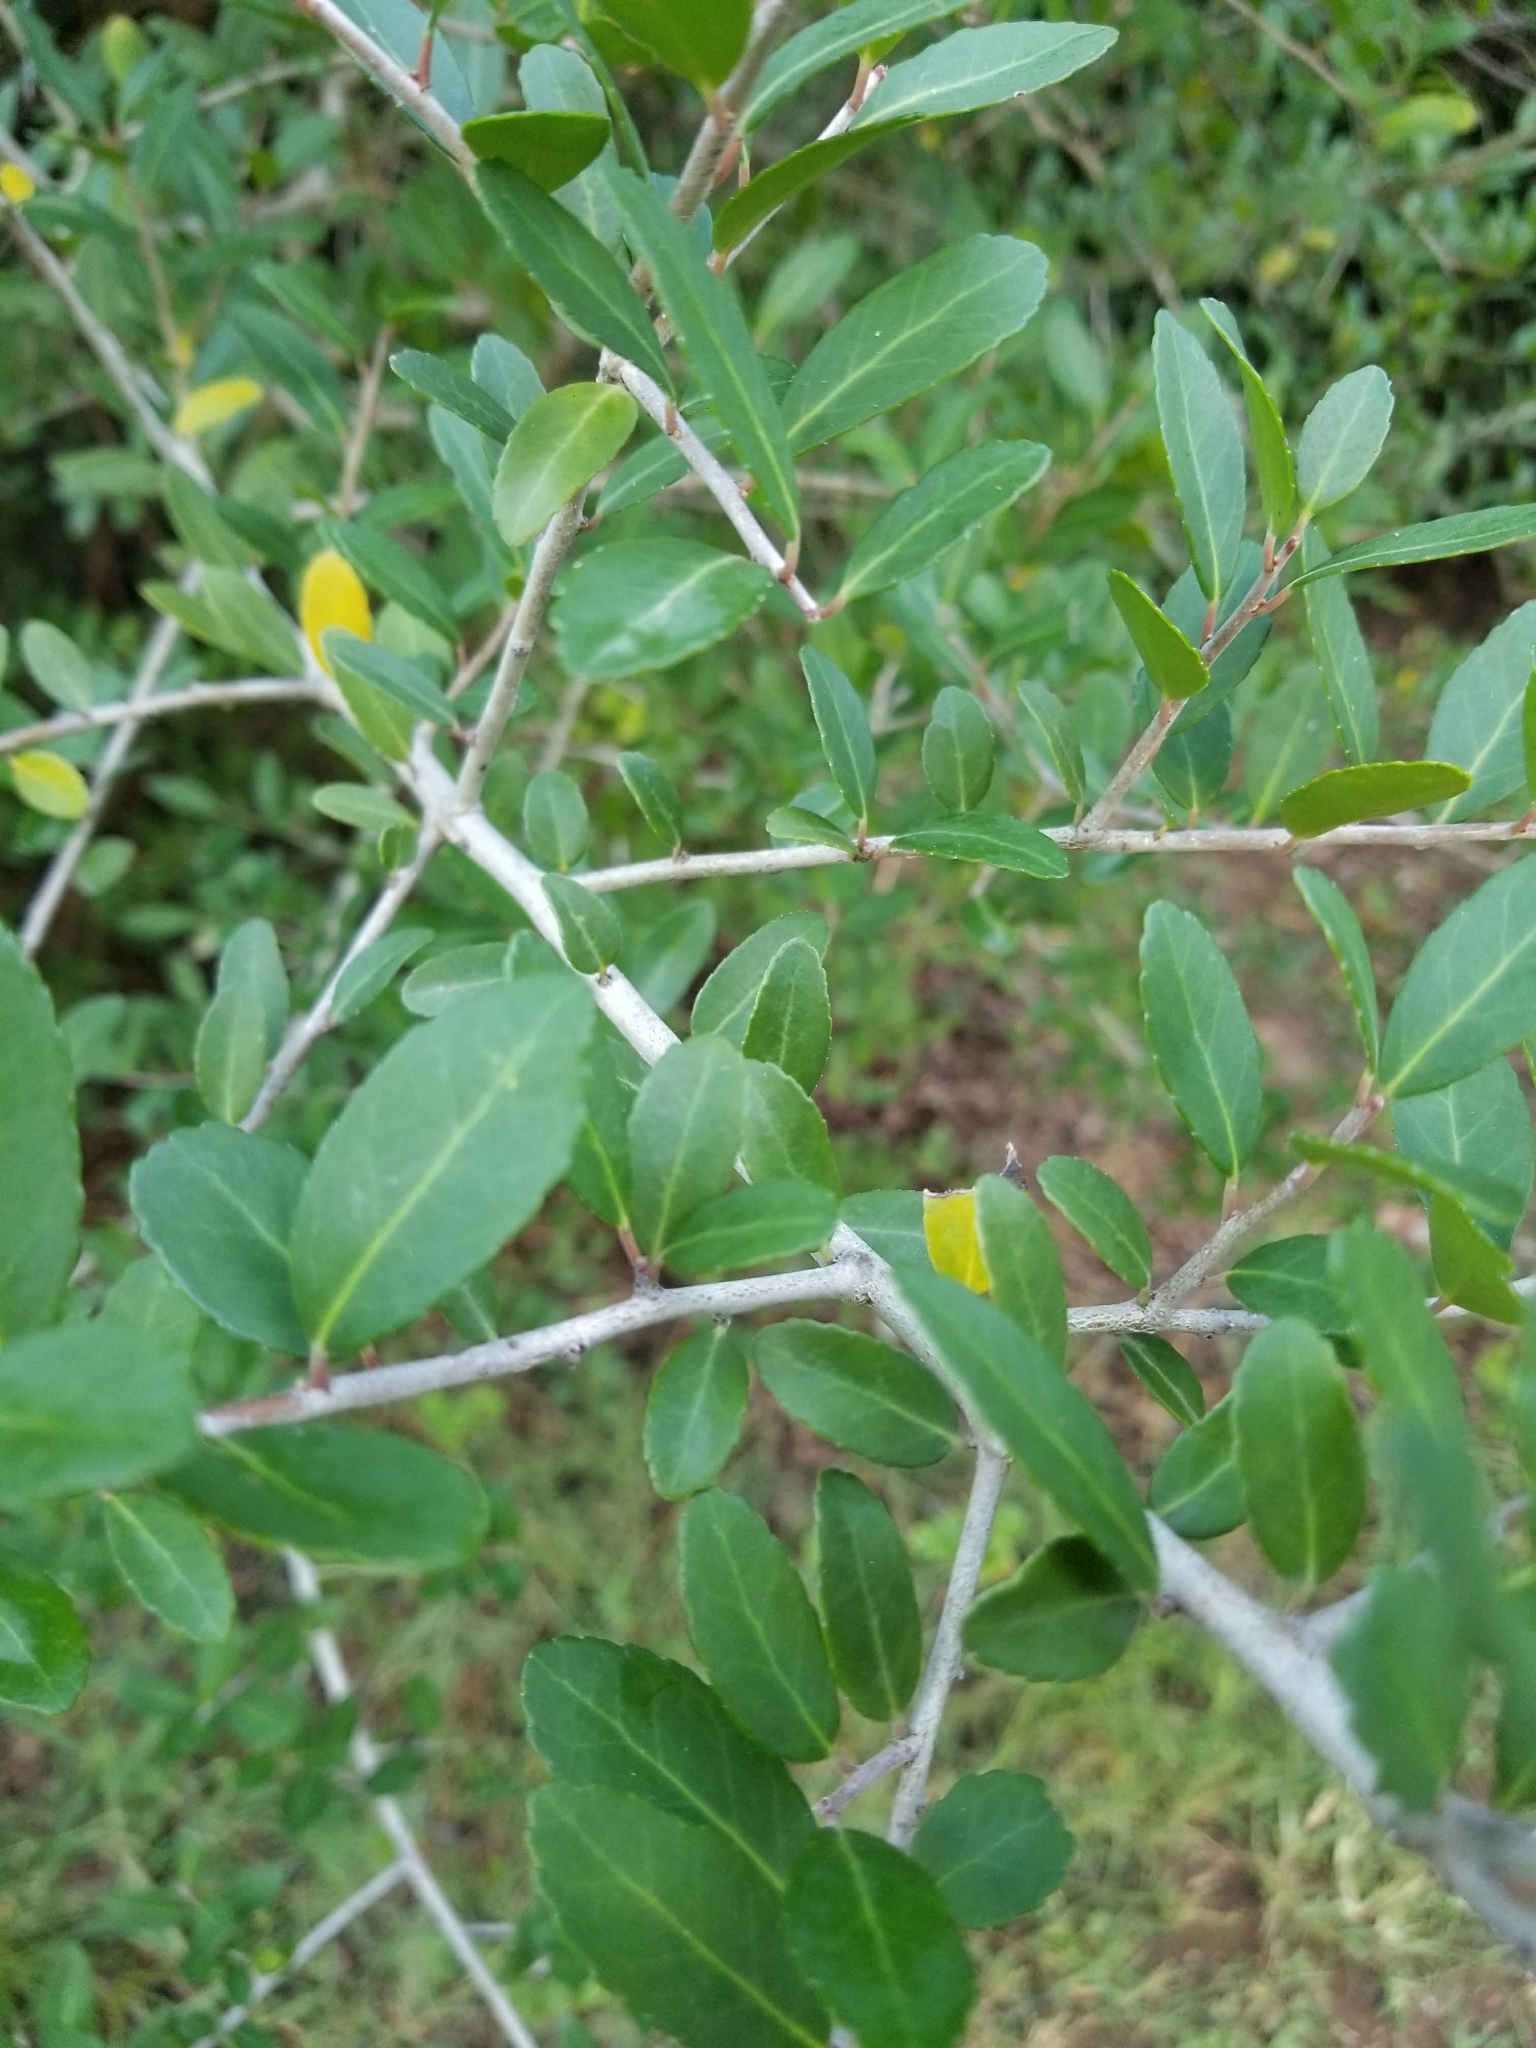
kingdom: Plantae
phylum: Tracheophyta
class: Magnoliopsida
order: Aquifoliales
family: Aquifoliaceae
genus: Ilex
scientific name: Ilex vomitoria
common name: Yaupon holly
